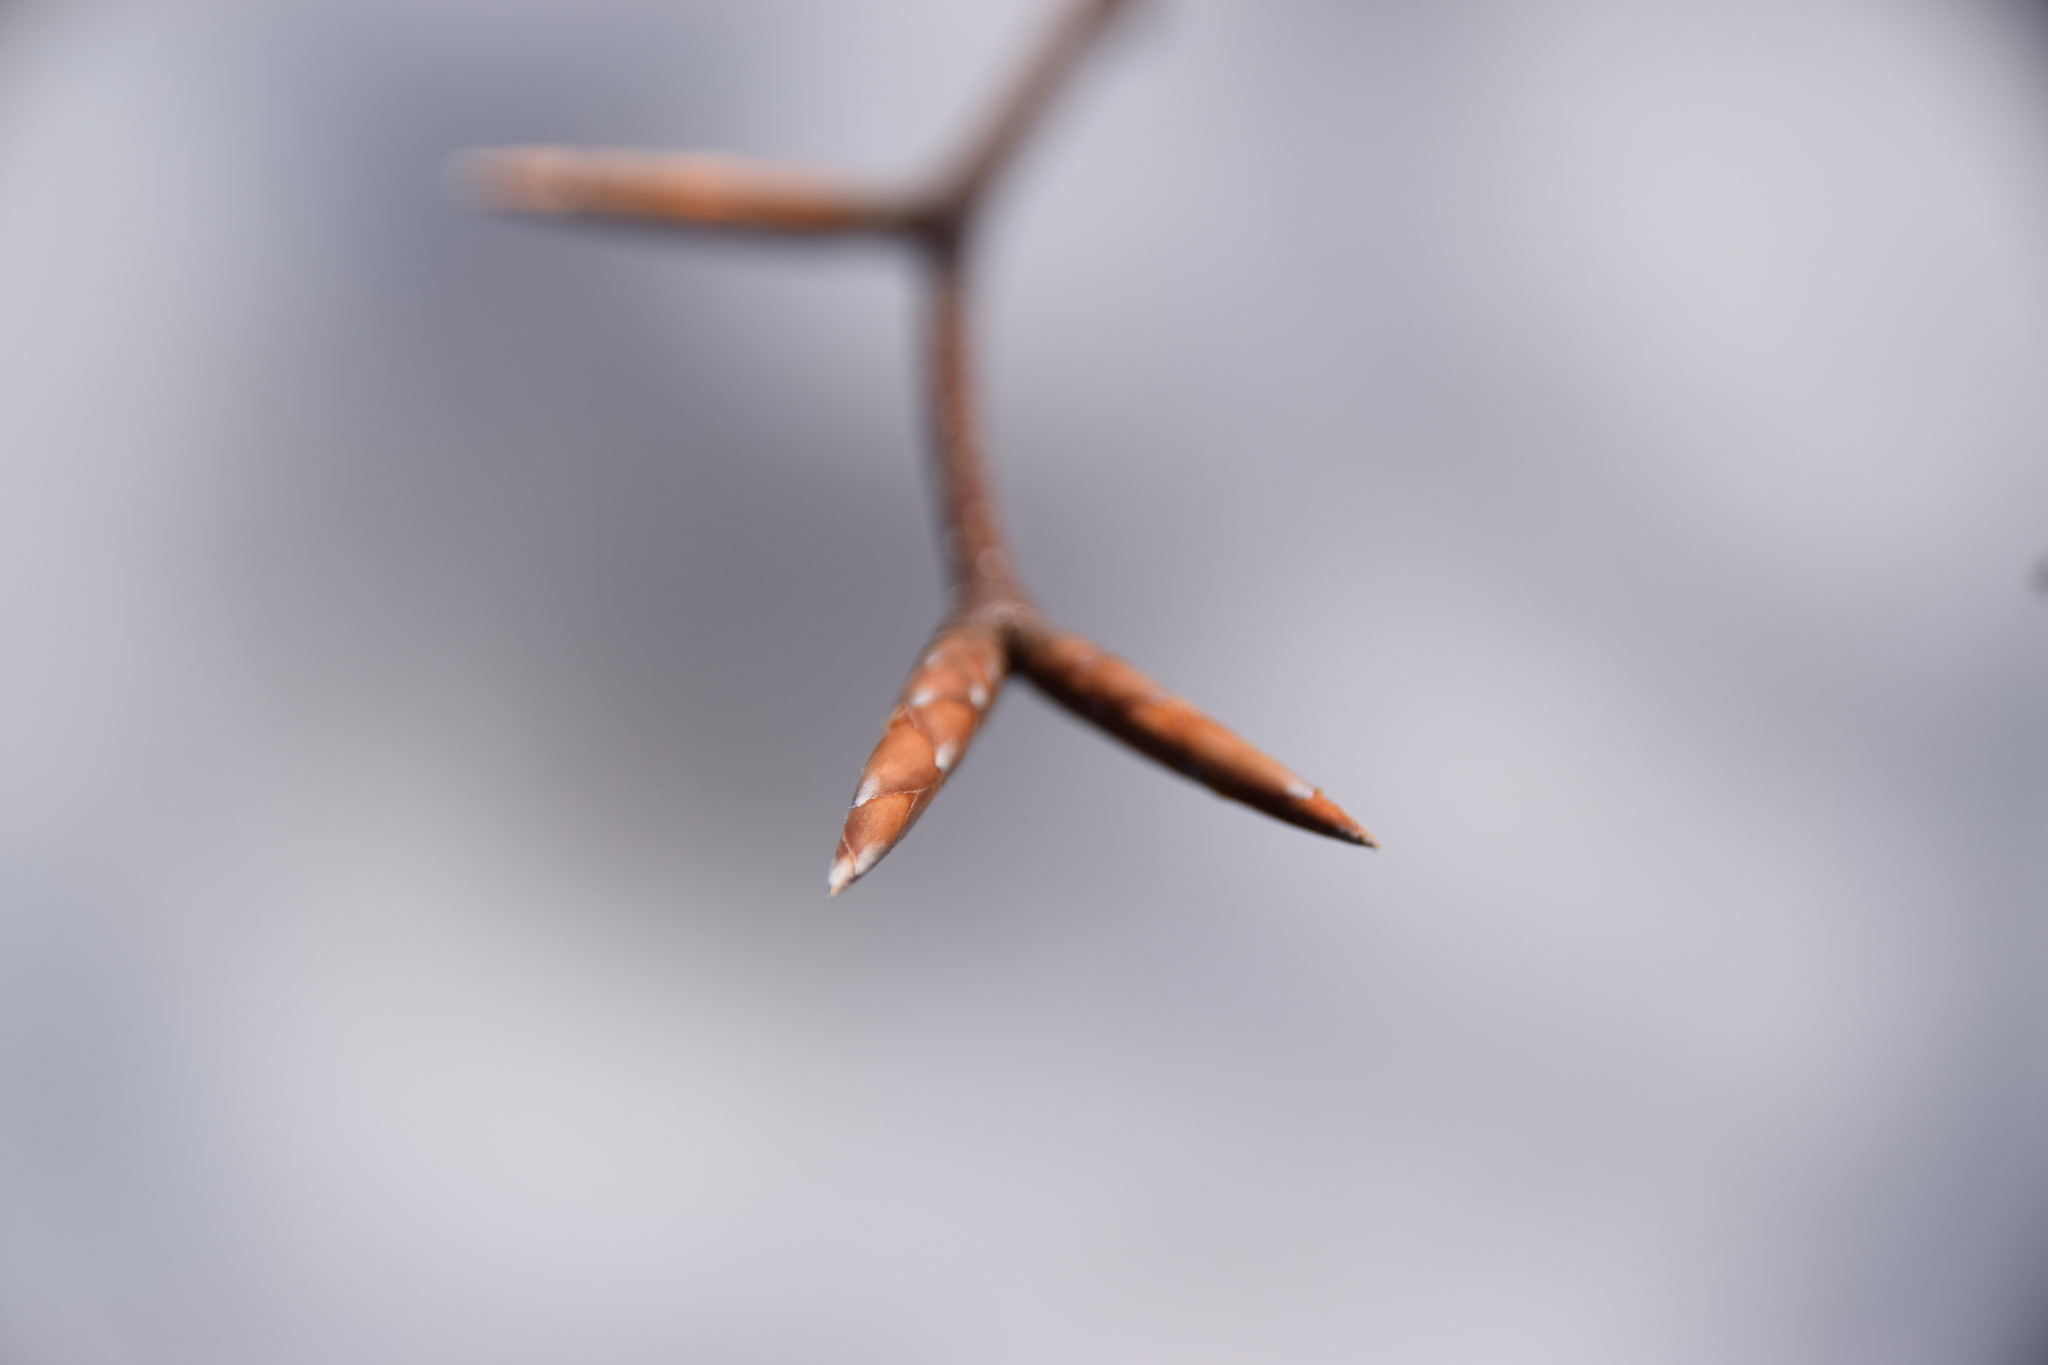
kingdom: Plantae
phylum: Tracheophyta
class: Magnoliopsida
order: Fagales
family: Fagaceae
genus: Fagus
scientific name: Fagus grandifolia
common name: American beech
